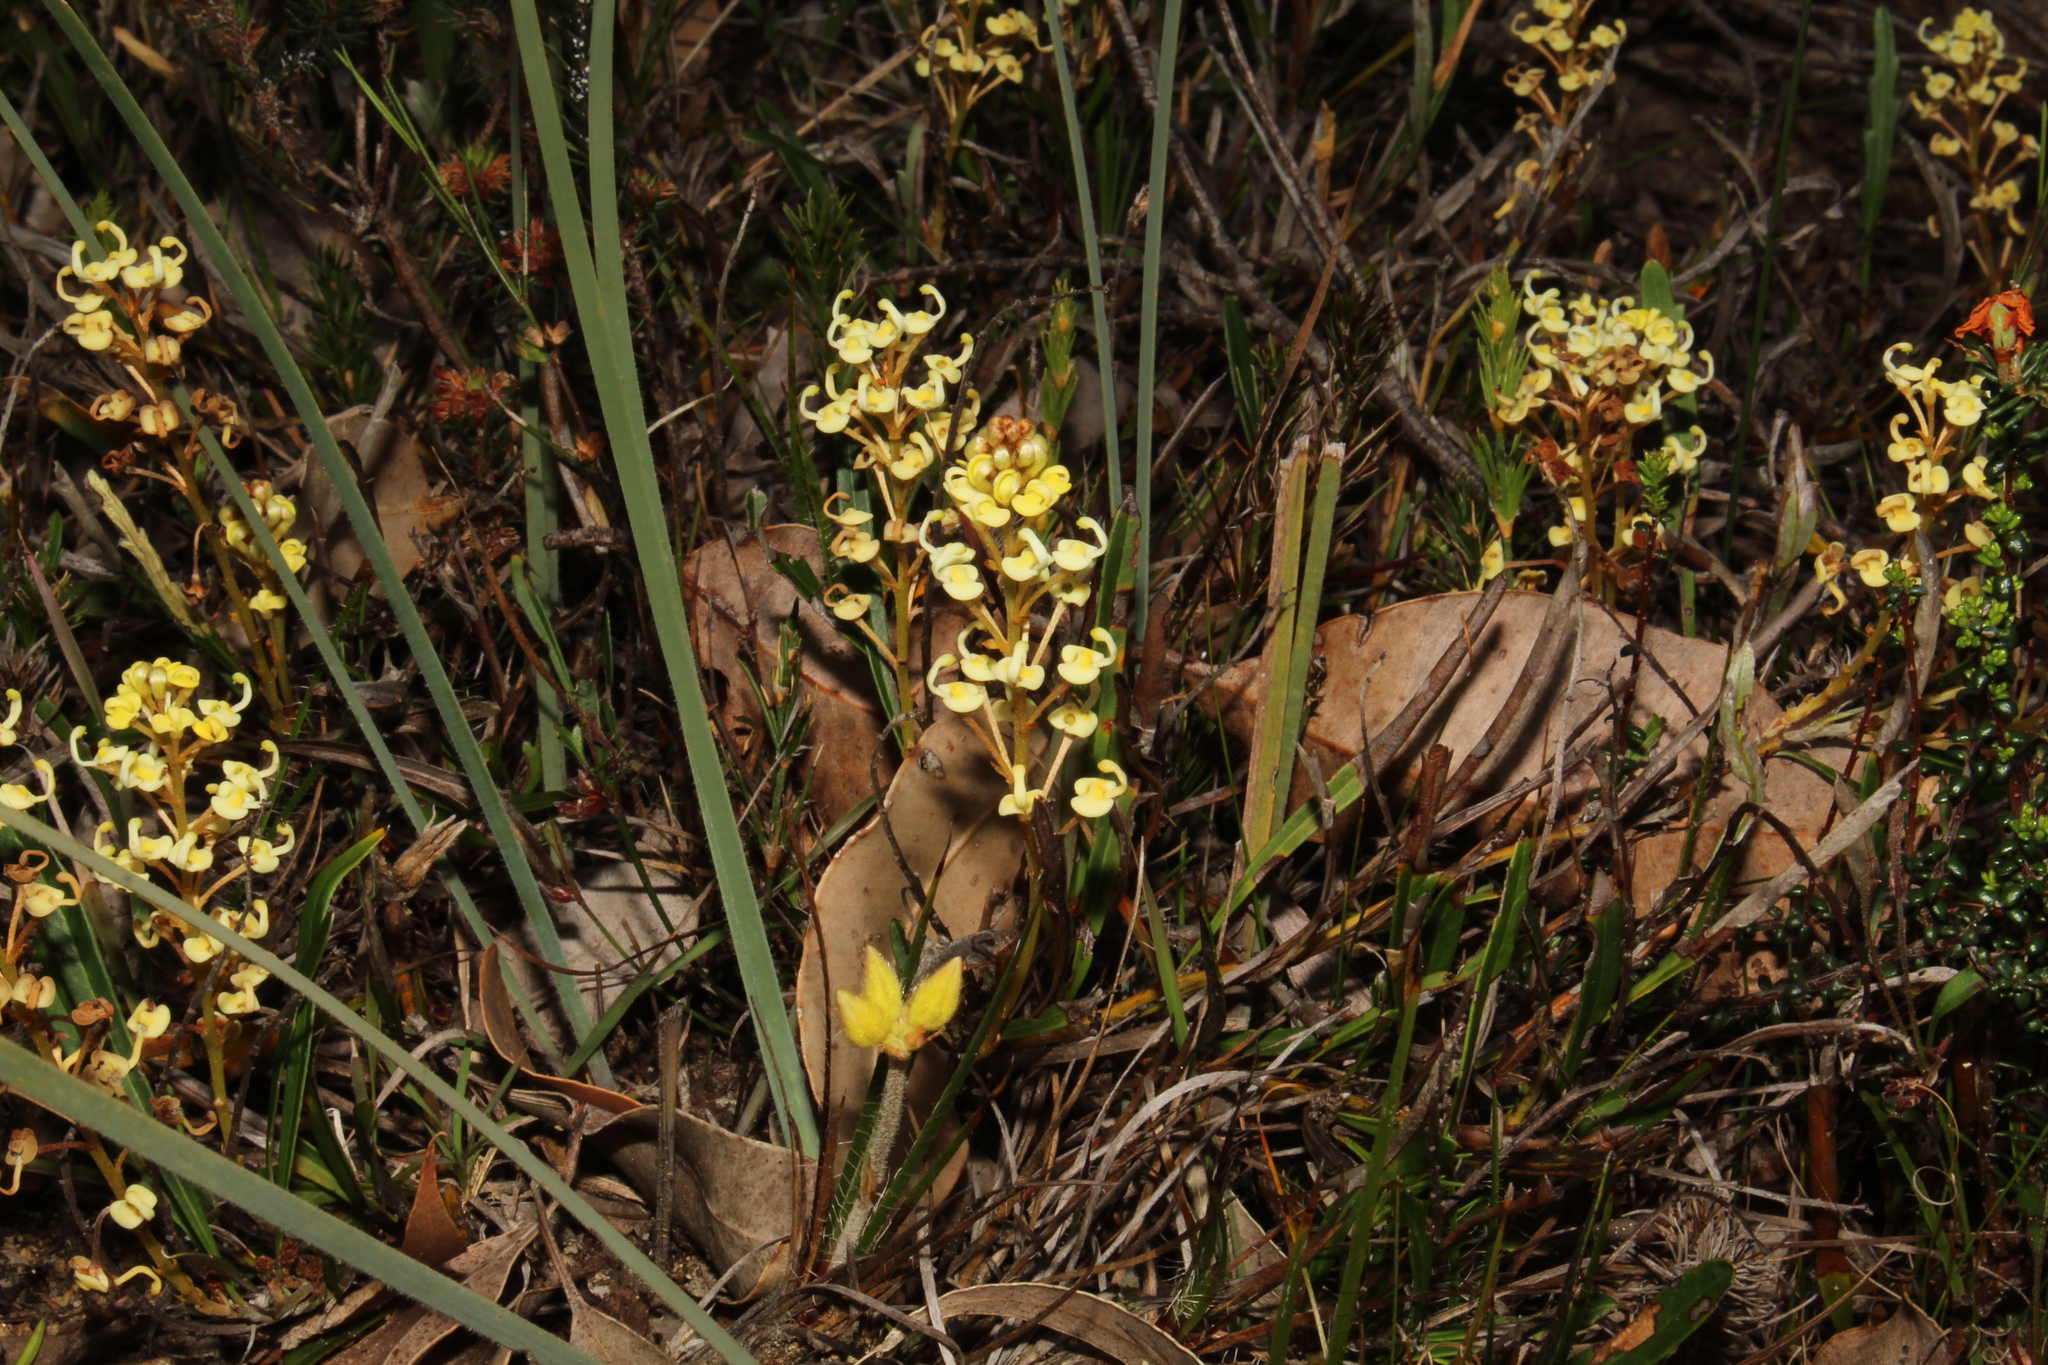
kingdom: Plantae
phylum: Tracheophyta
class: Magnoliopsida
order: Proteales
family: Proteaceae
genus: Grevillea
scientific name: Grevillea cirsiifolia
